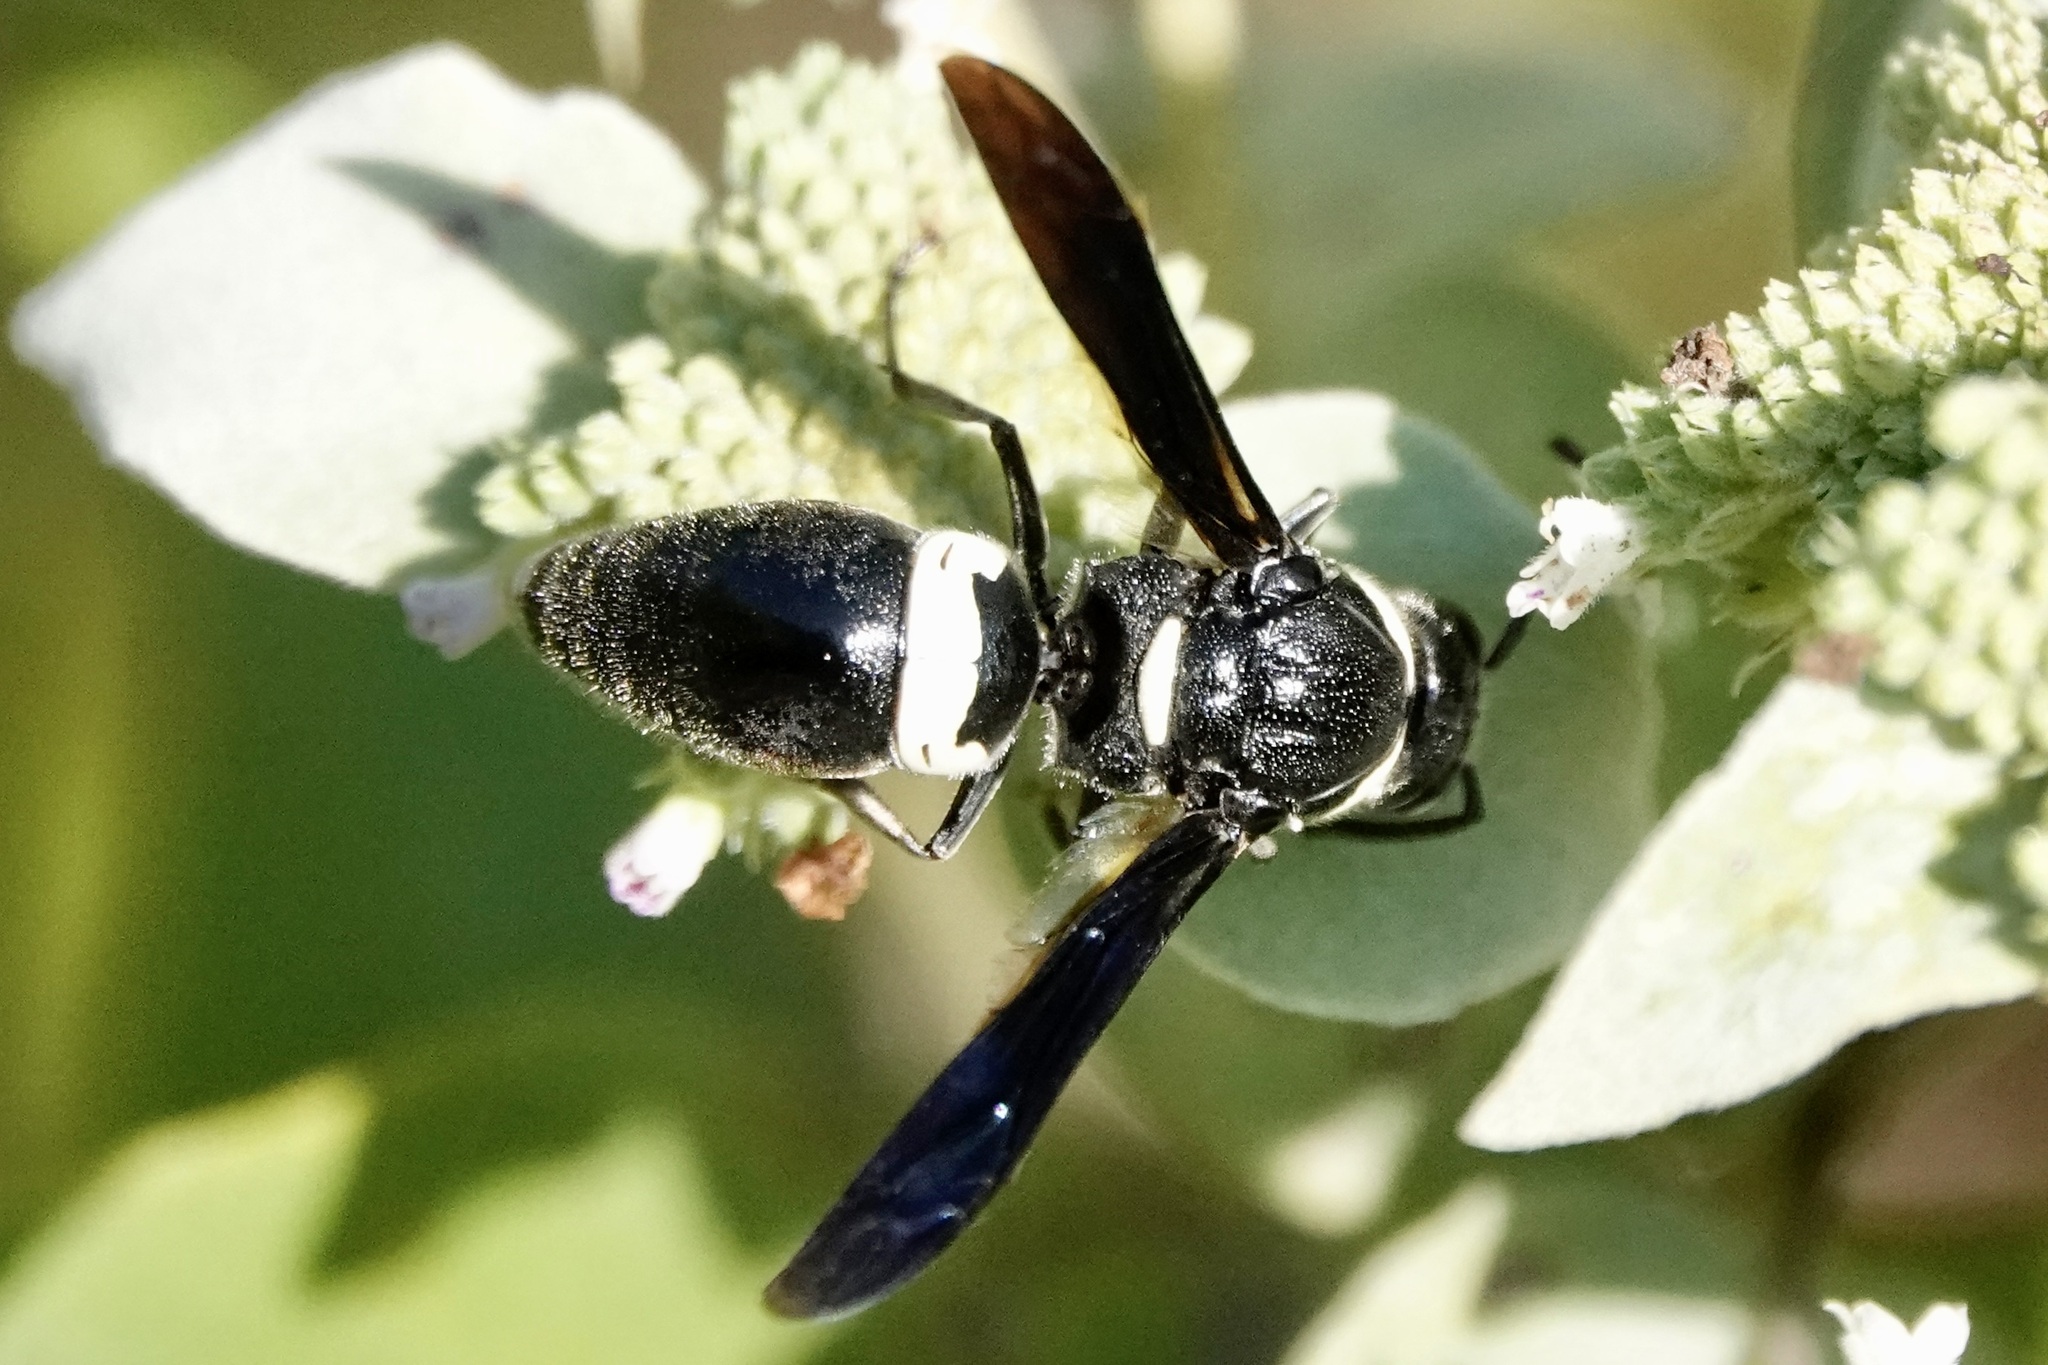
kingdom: Animalia
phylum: Arthropoda
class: Insecta
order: Hymenoptera
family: Eumenidae
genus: Monobia
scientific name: Monobia quadridens
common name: Four-toothed mason wasp
